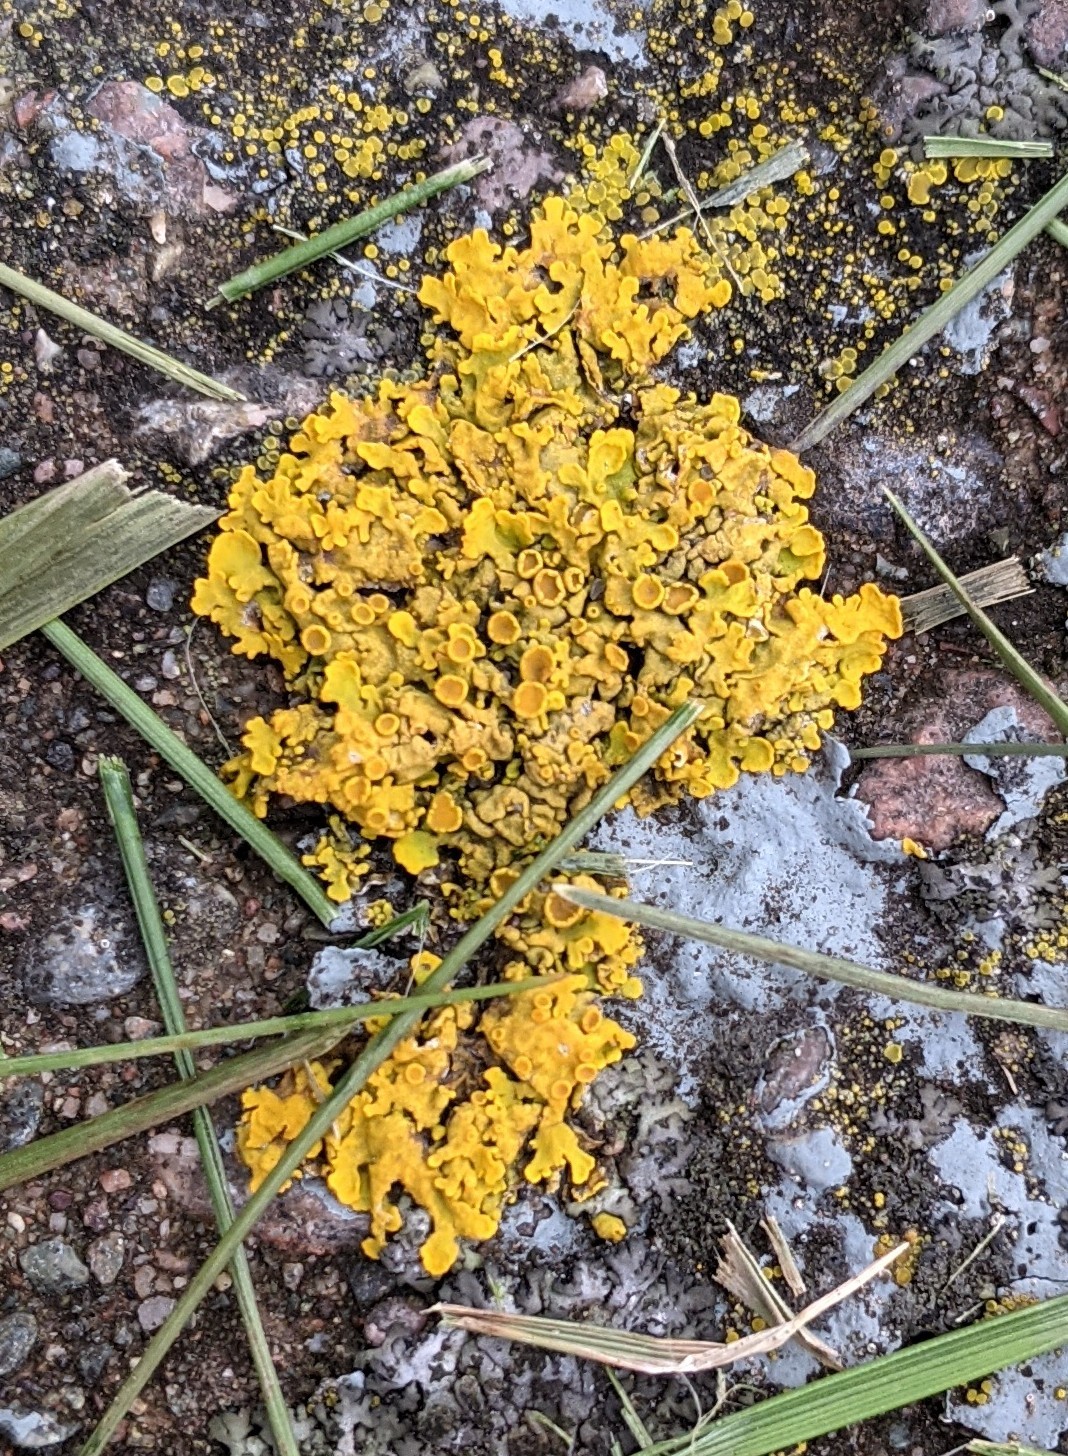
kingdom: Fungi
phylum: Ascomycota
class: Lecanoromycetes
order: Teloschistales
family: Teloschistaceae
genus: Xanthoria
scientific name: Xanthoria parietina
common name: Common orange lichen
